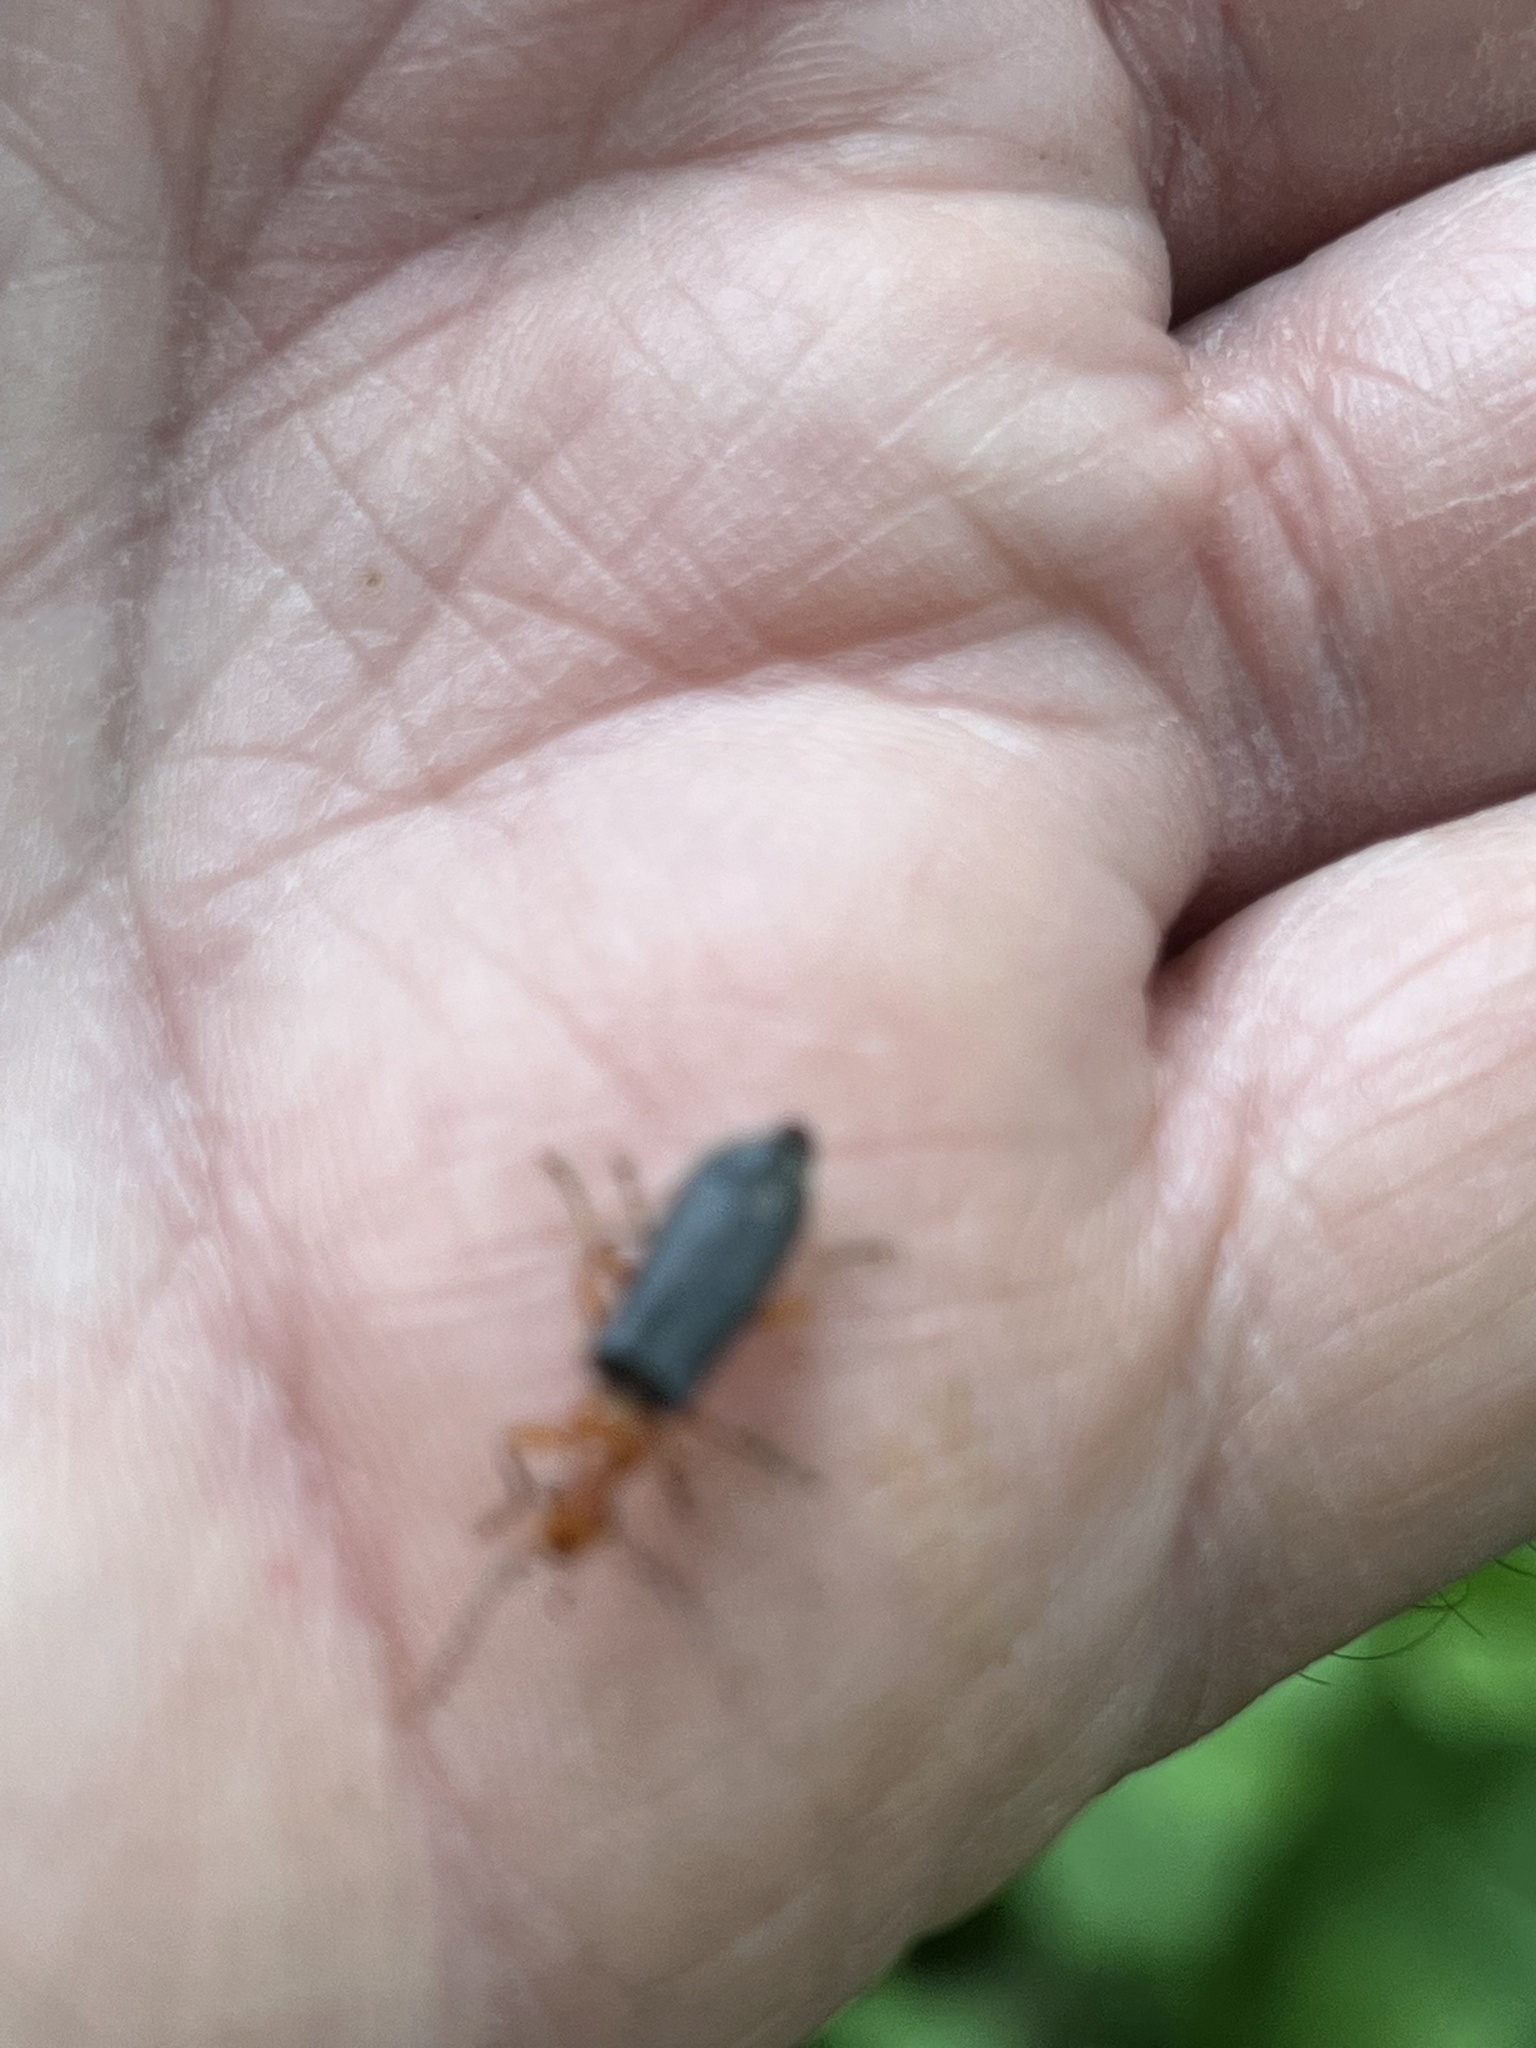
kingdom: Animalia
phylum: Arthropoda
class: Insecta
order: Coleoptera
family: Cantharidae
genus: Podabrus
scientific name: Podabrus tomentosus
